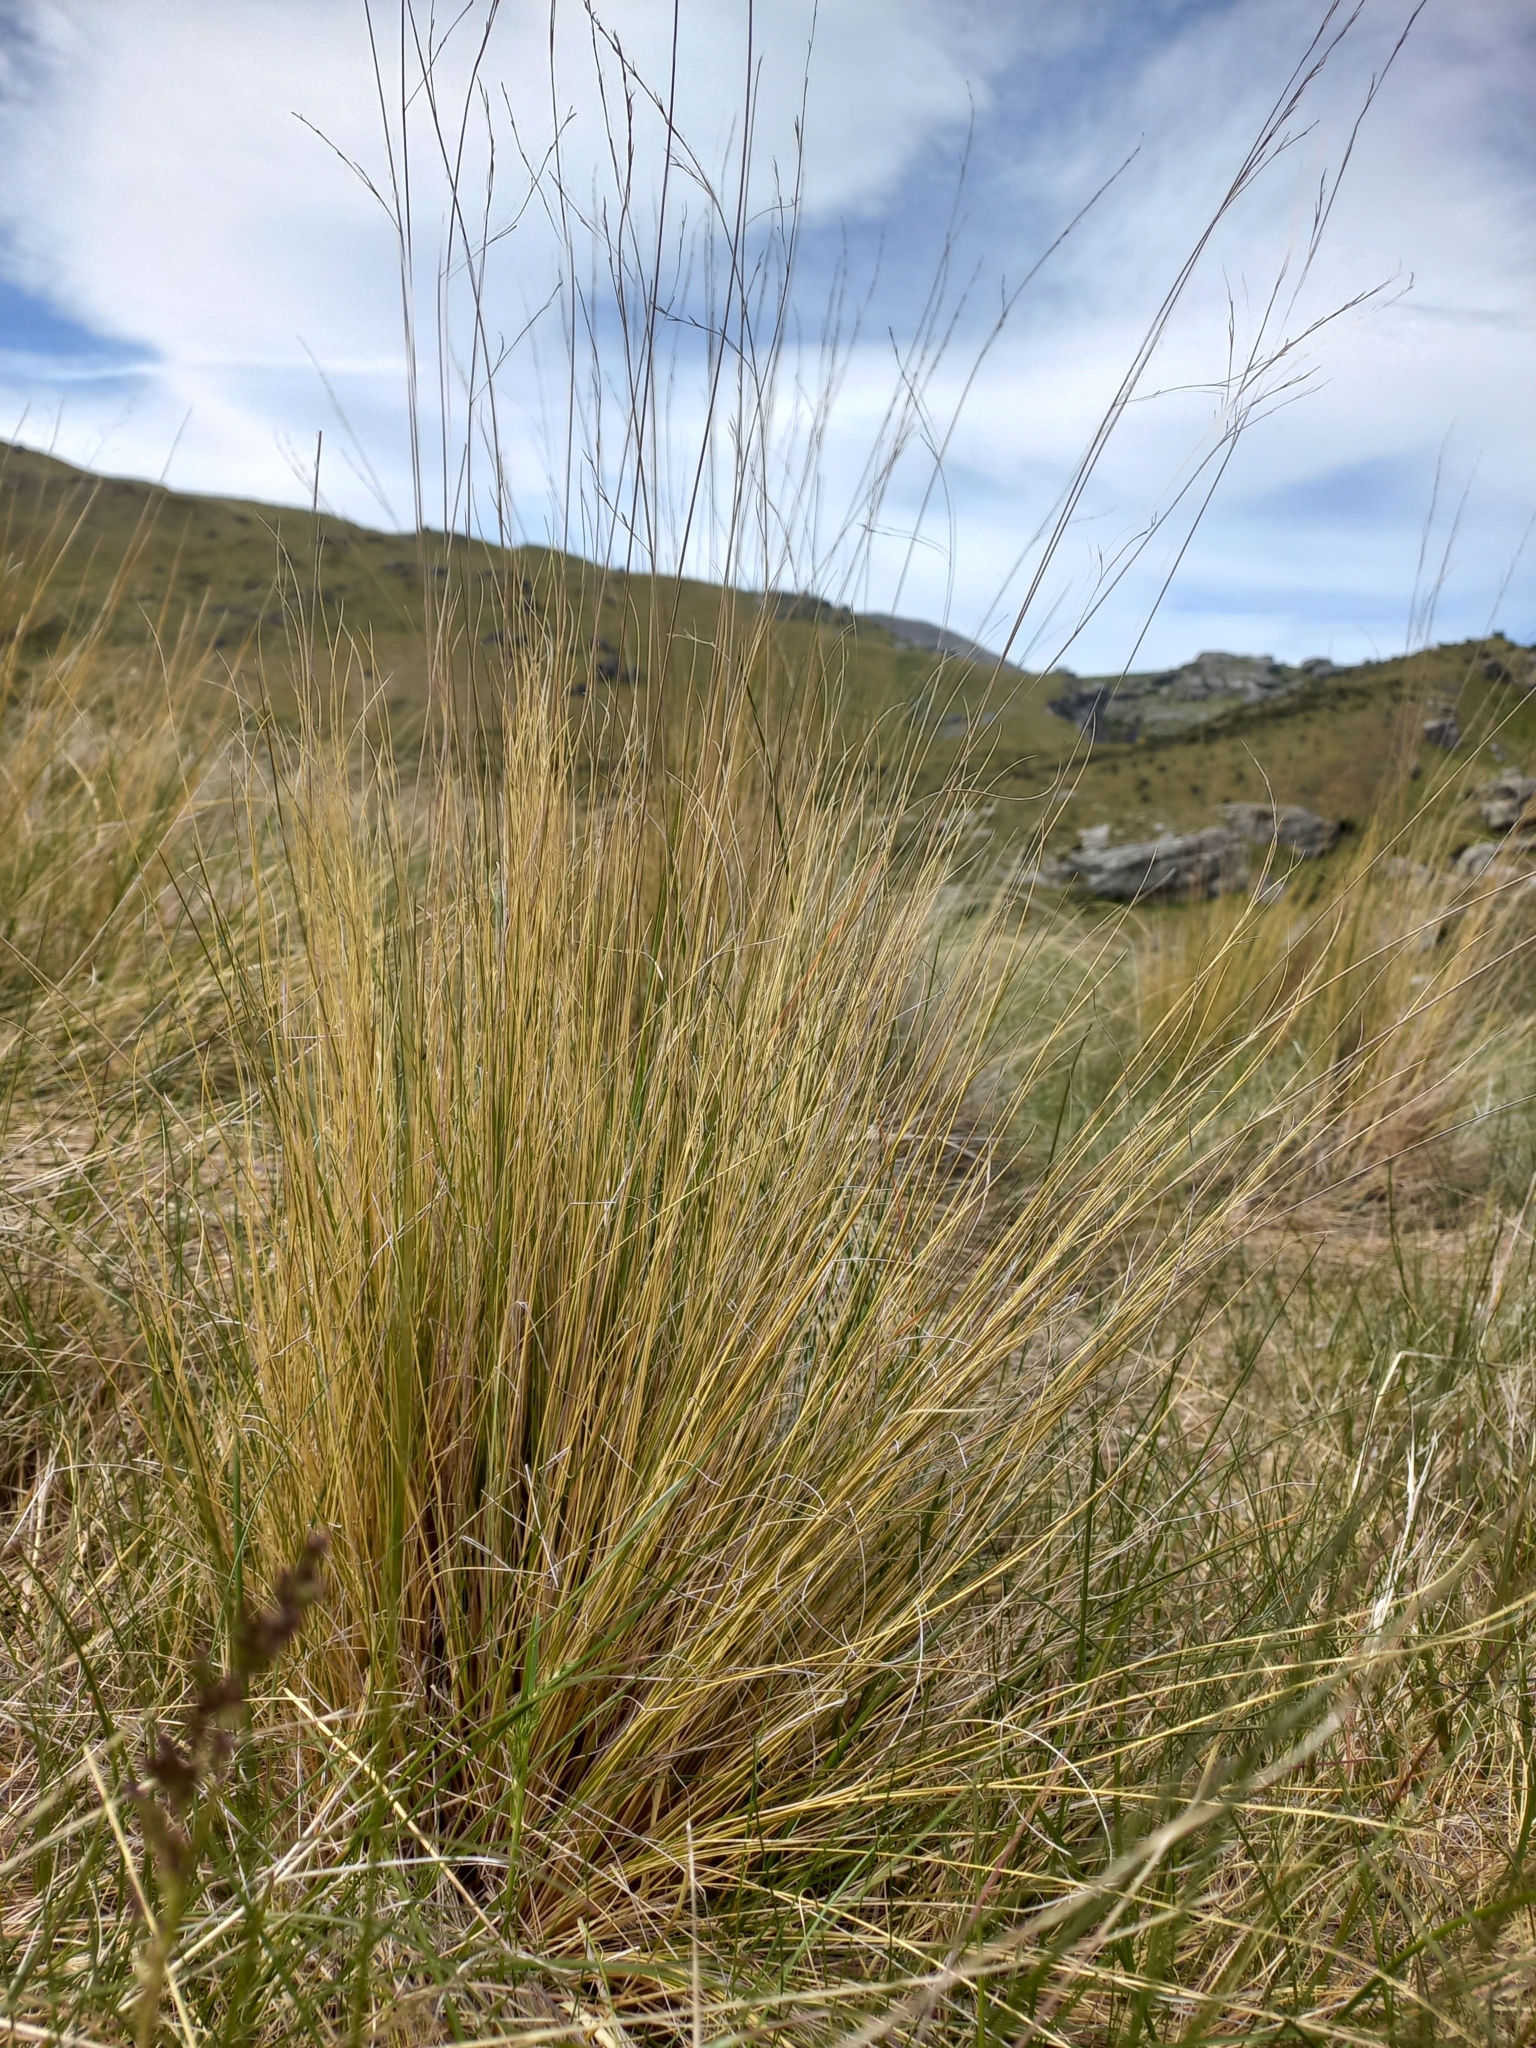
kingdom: Plantae
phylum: Tracheophyta
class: Liliopsida
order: Poales
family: Poaceae
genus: Festuca
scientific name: Festuca matthewsii
